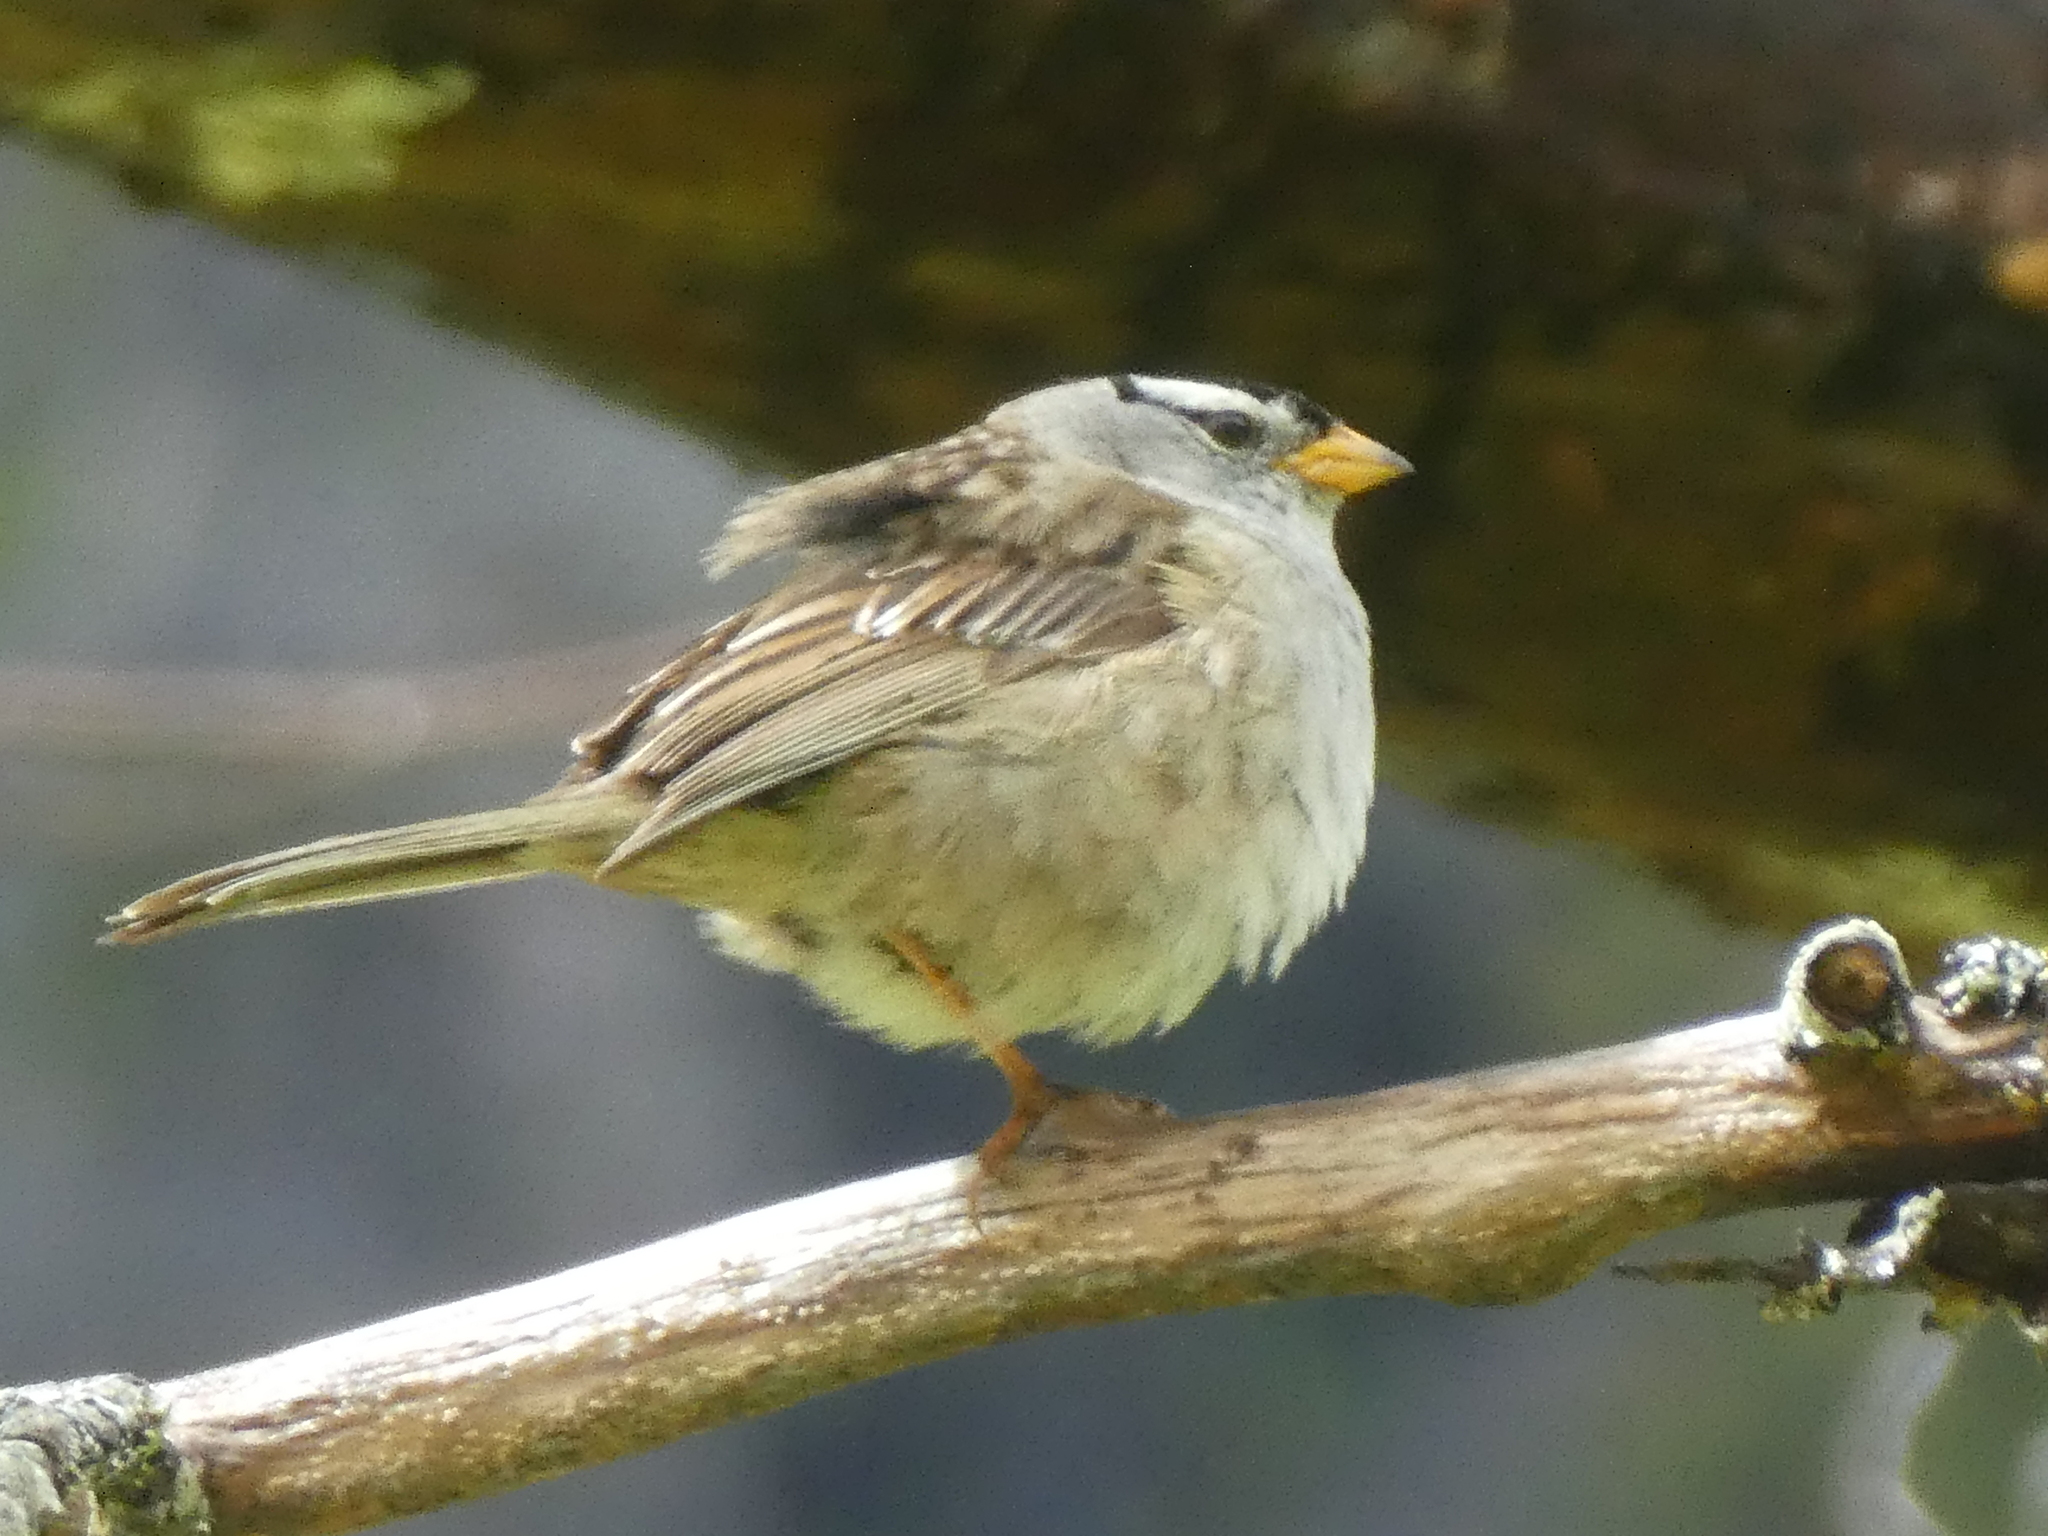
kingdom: Animalia
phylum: Chordata
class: Aves
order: Passeriformes
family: Passerellidae
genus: Zonotrichia
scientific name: Zonotrichia leucophrys
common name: White-crowned sparrow
